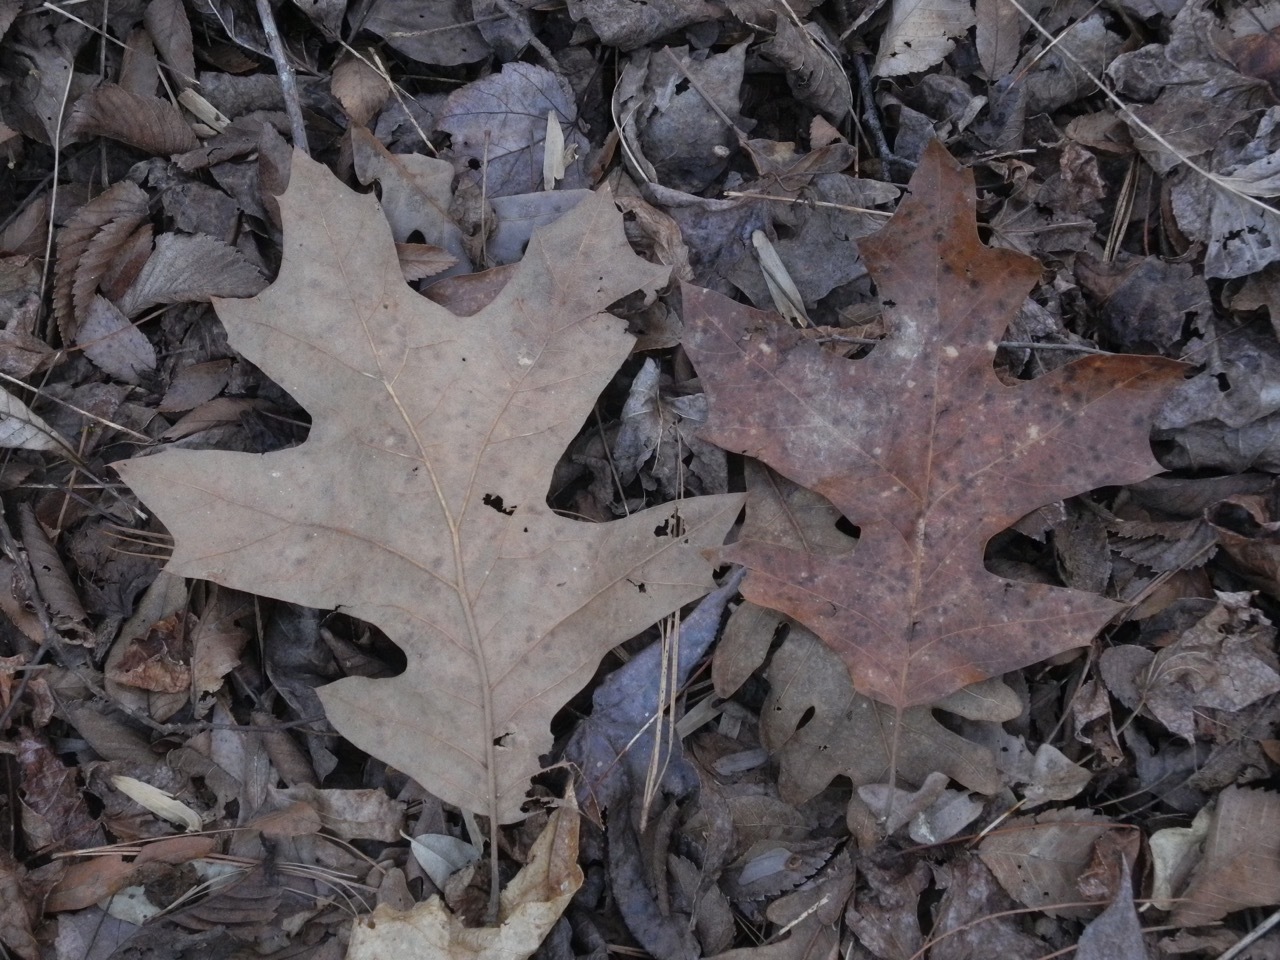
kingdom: Plantae
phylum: Tracheophyta
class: Magnoliopsida
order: Fagales
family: Fagaceae
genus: Quercus
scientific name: Quercus rubra
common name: Red oak
